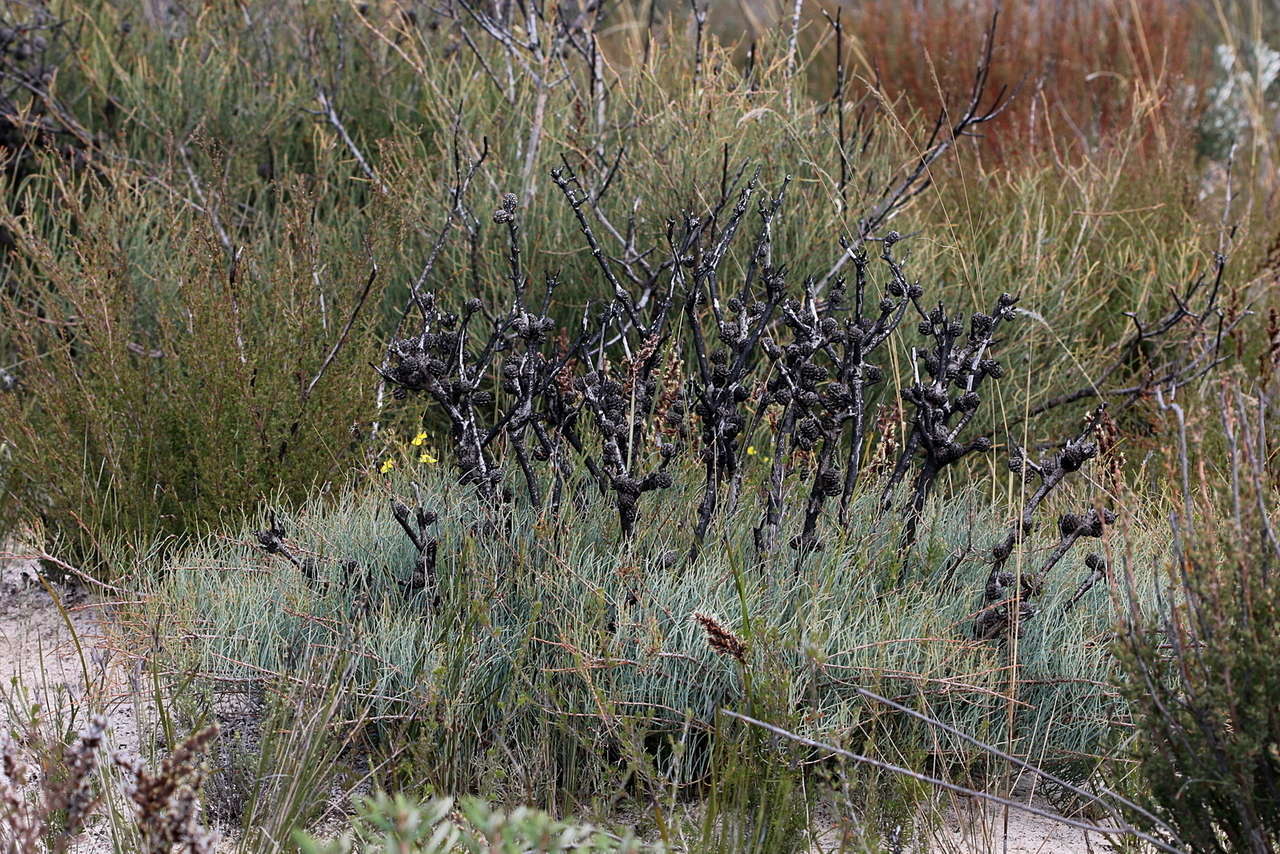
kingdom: Plantae
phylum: Tracheophyta
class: Magnoliopsida
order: Fagales
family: Casuarinaceae
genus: Allocasuarina
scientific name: Allocasuarina pusilla
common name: Dwarf she-oak
